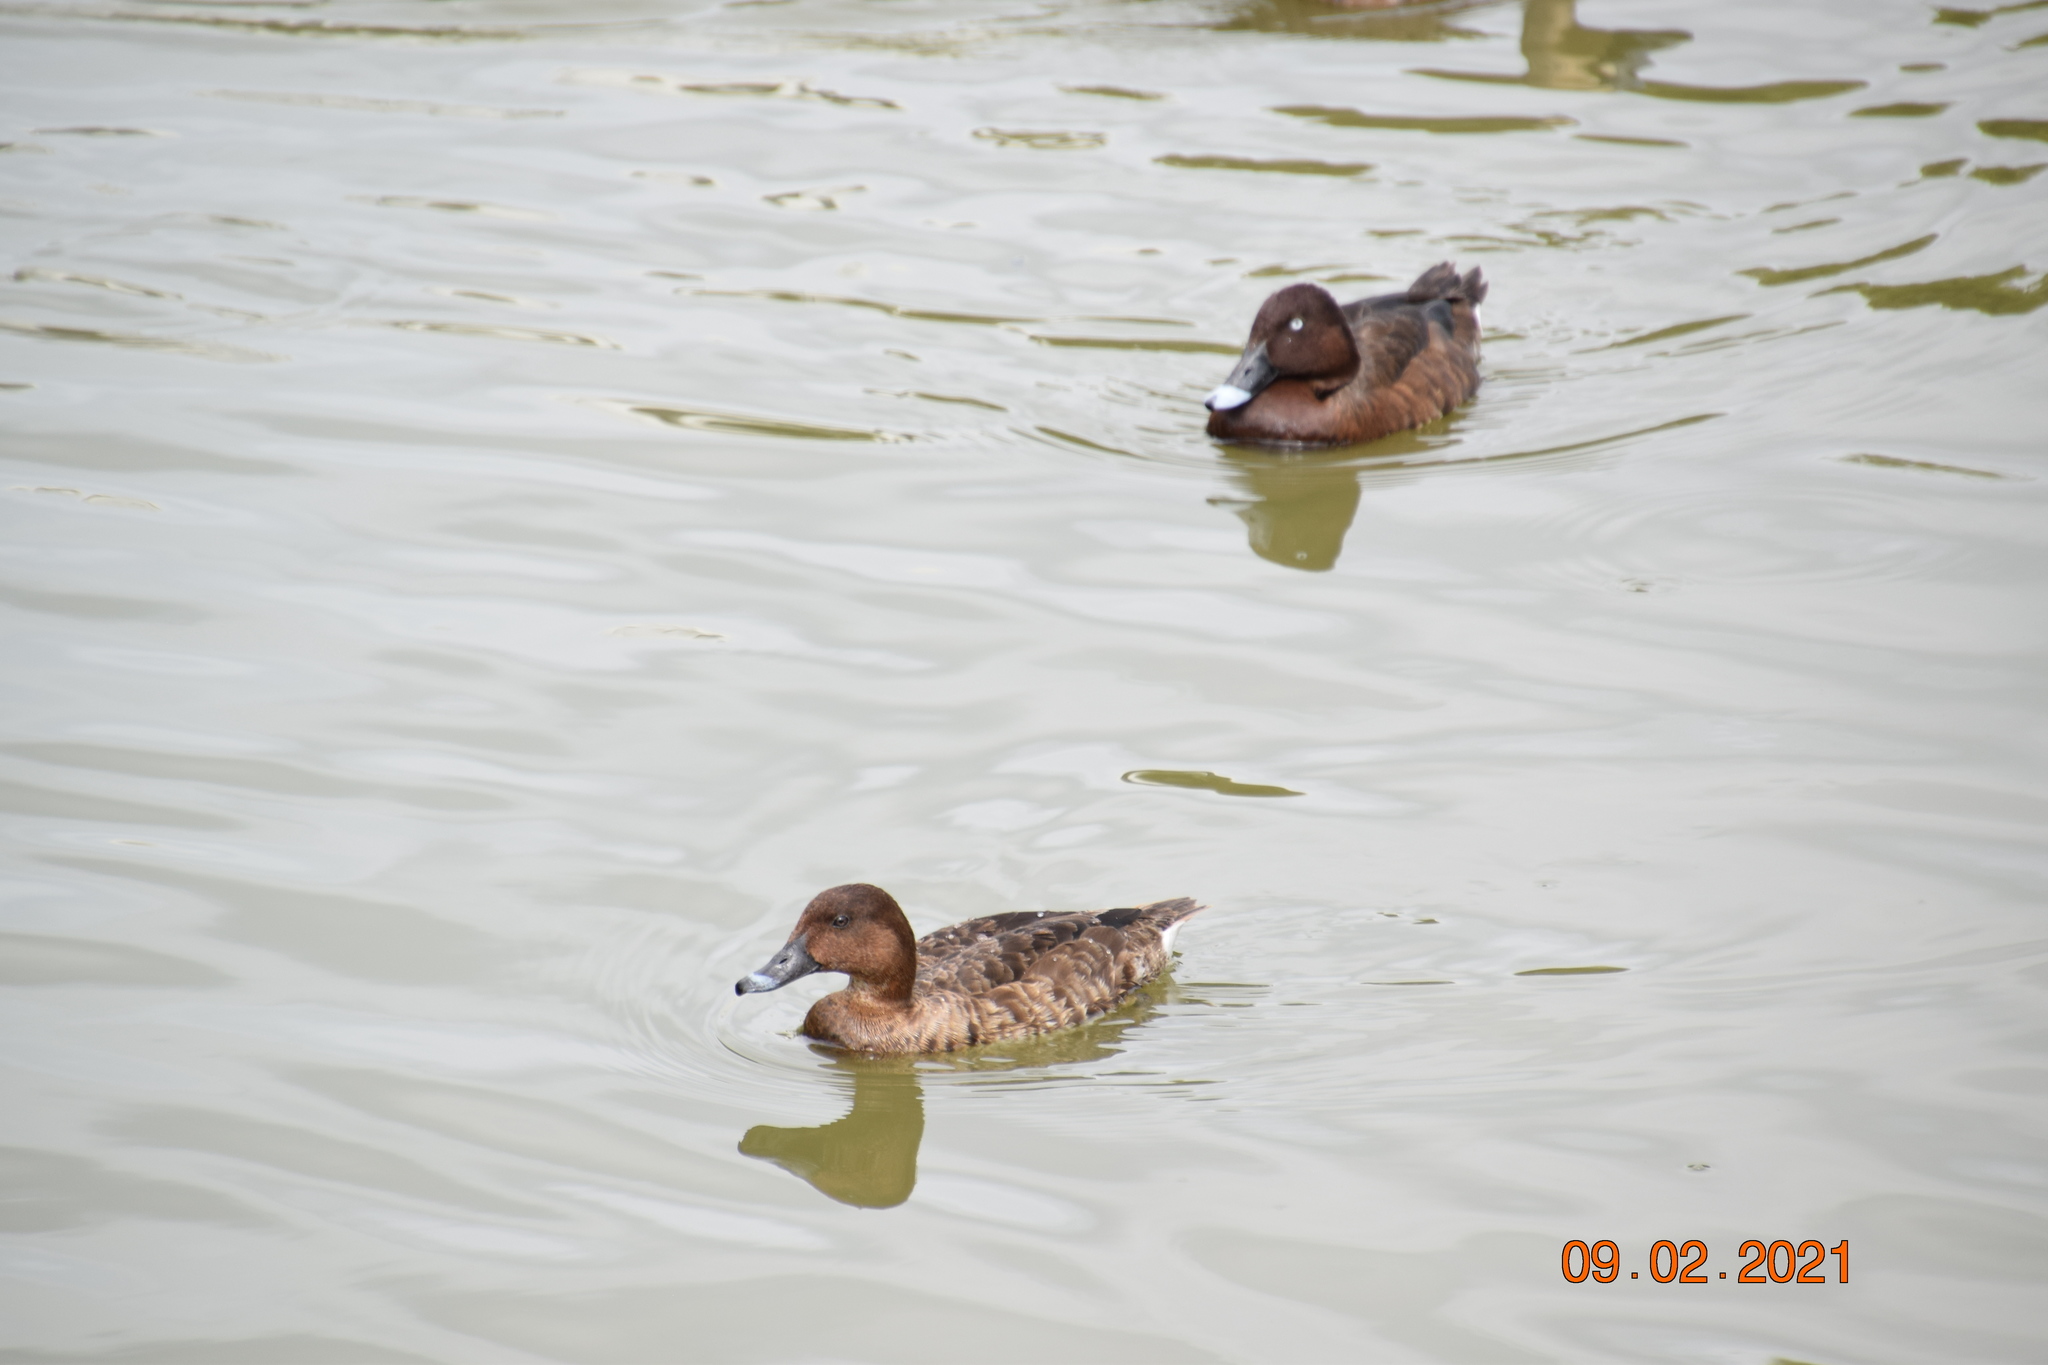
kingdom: Animalia
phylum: Chordata
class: Aves
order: Anseriformes
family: Anatidae
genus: Aythya
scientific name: Aythya australis
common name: Hardhead
